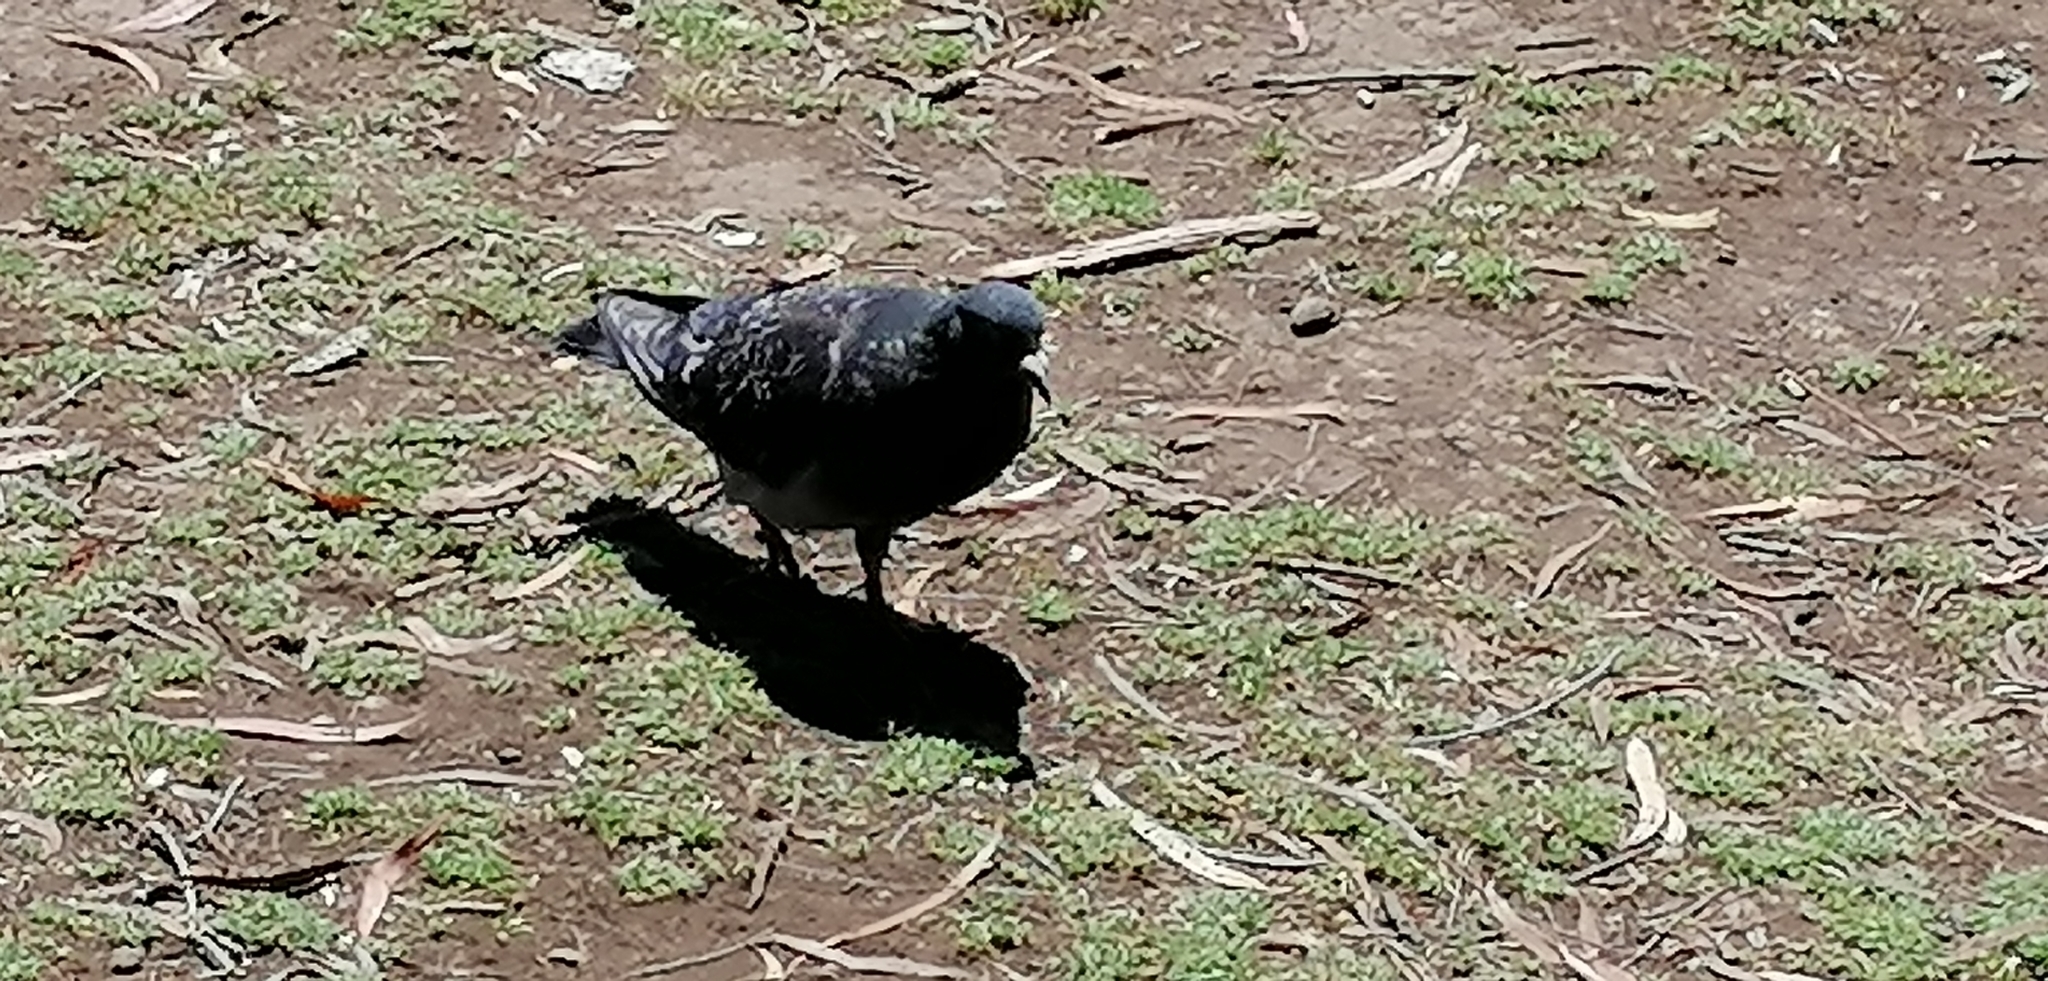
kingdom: Animalia
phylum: Chordata
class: Aves
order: Columbiformes
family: Columbidae
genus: Columba
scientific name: Columba livia
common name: Rock pigeon
